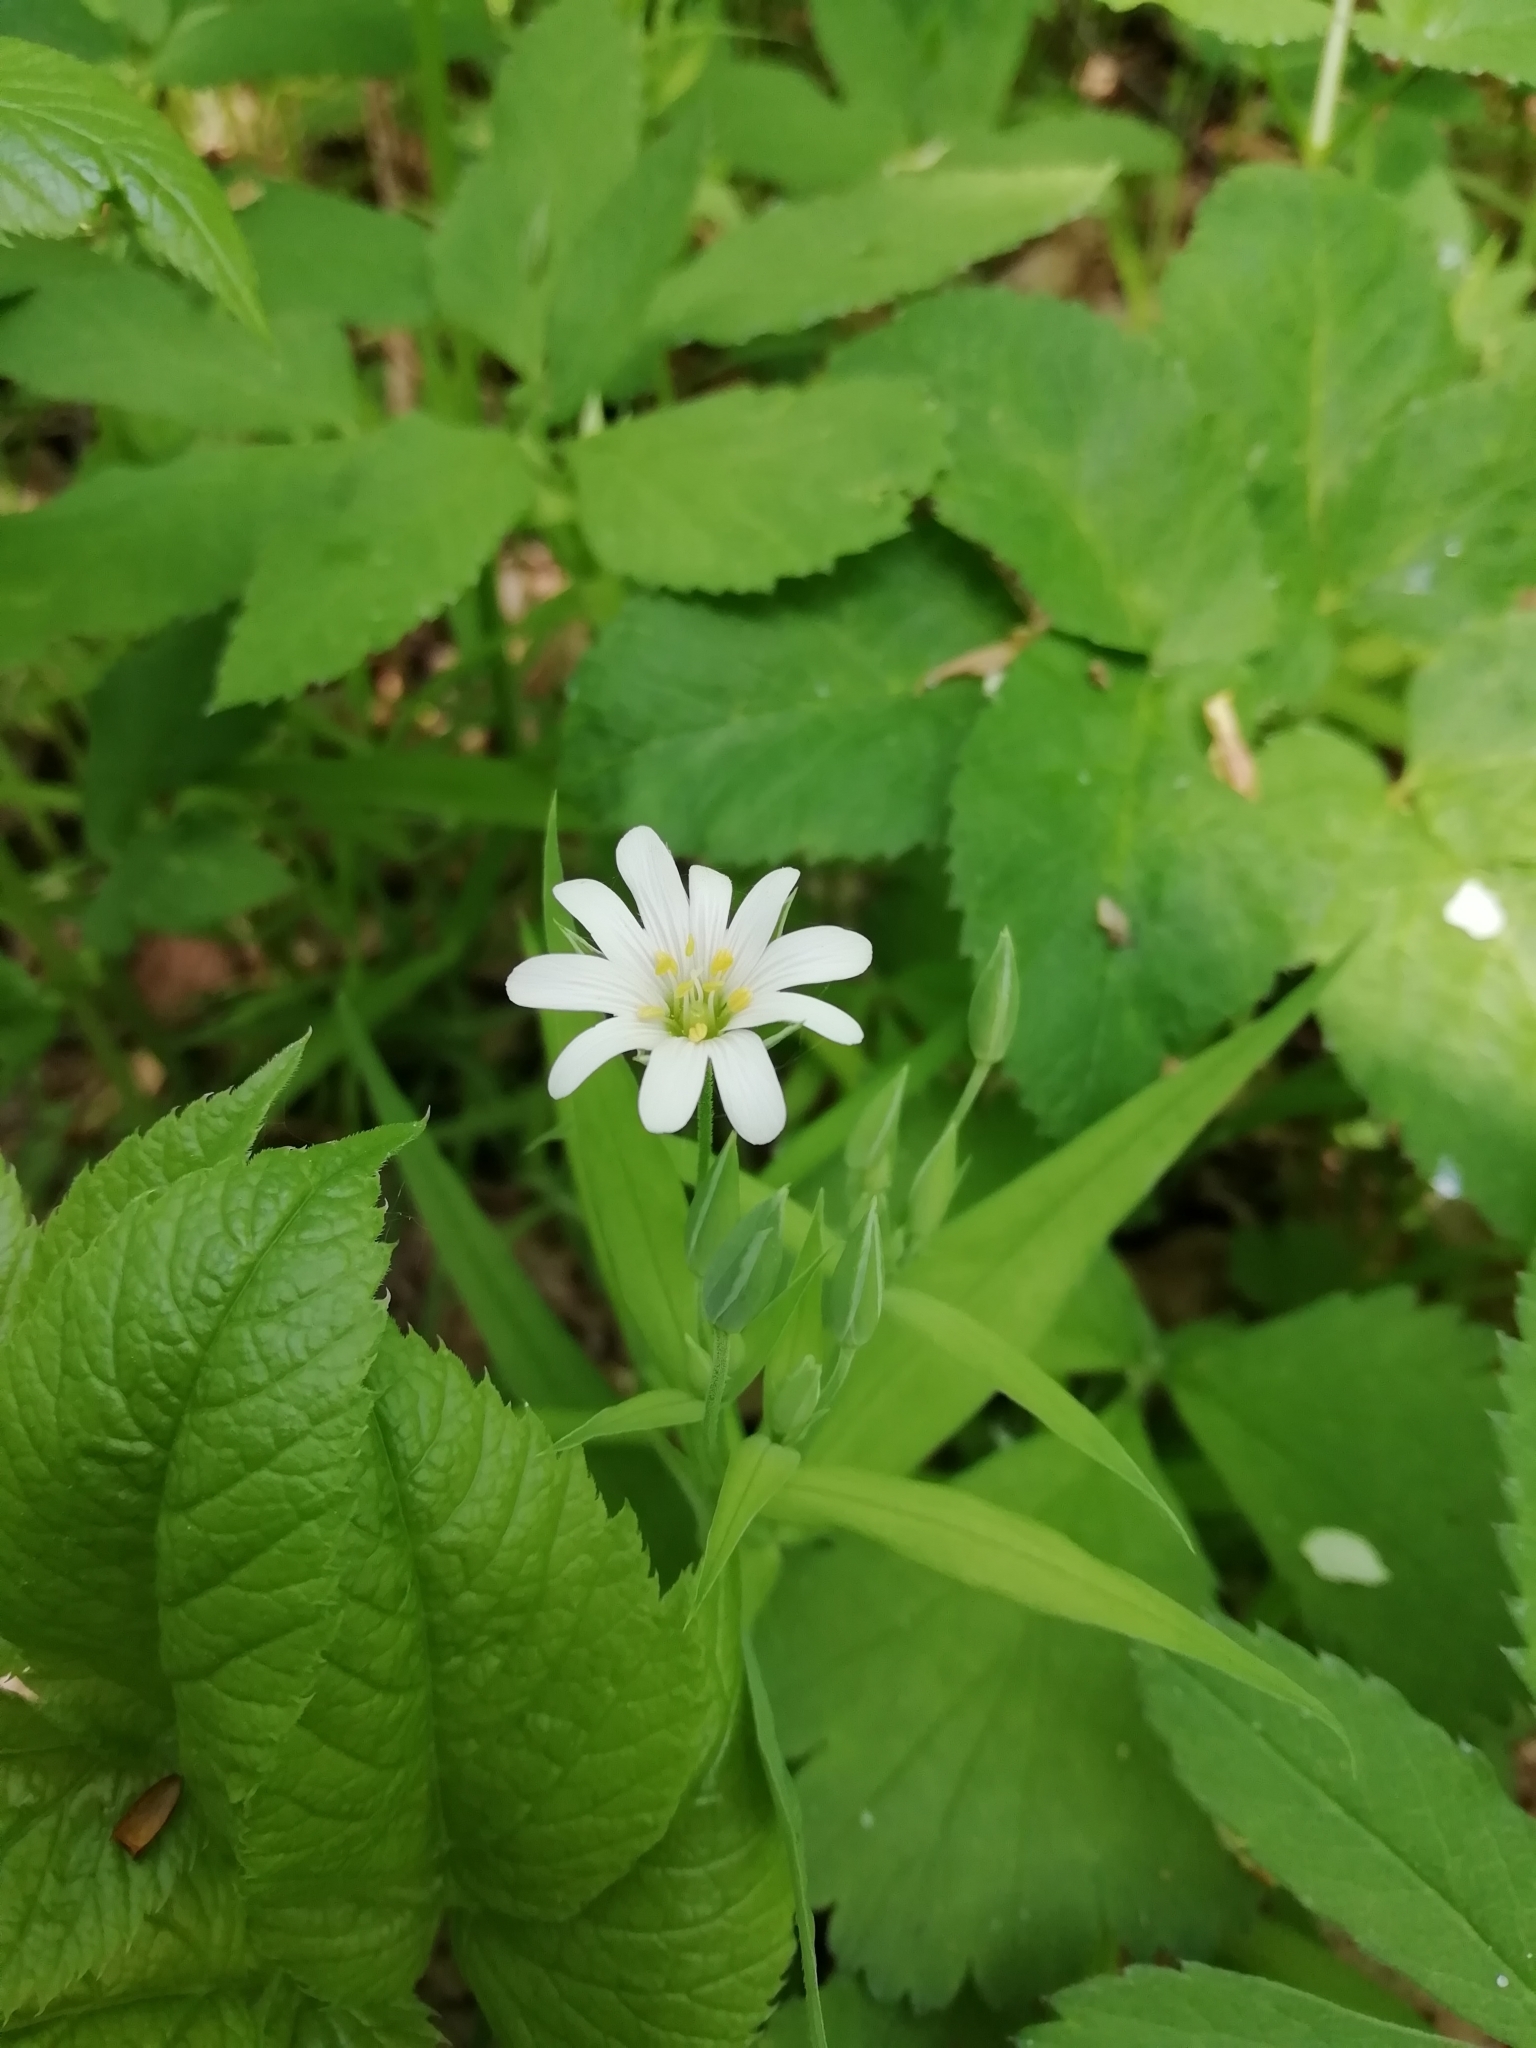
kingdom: Plantae
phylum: Tracheophyta
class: Magnoliopsida
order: Caryophyllales
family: Caryophyllaceae
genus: Rabelera
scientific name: Rabelera holostea
